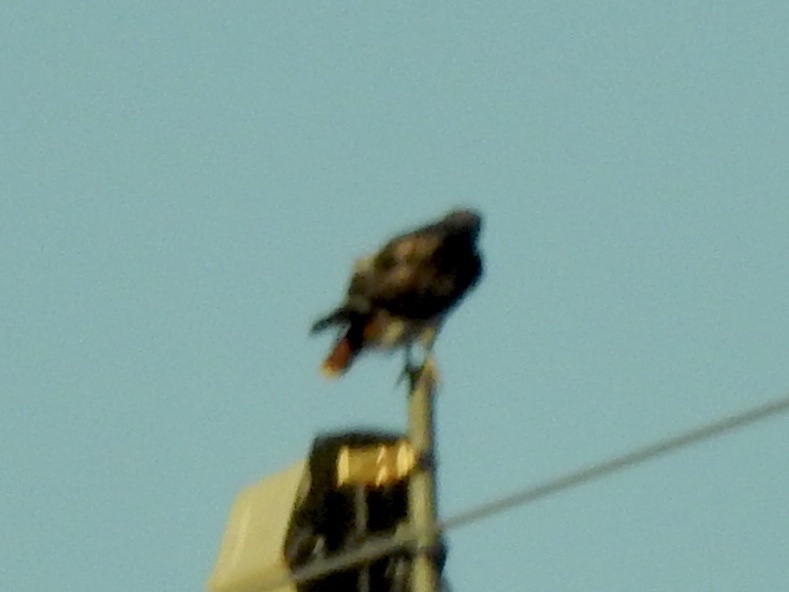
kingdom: Animalia
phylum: Chordata
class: Aves
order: Accipitriformes
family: Accipitridae
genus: Buteo
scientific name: Buteo jamaicensis
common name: Red-tailed hawk
